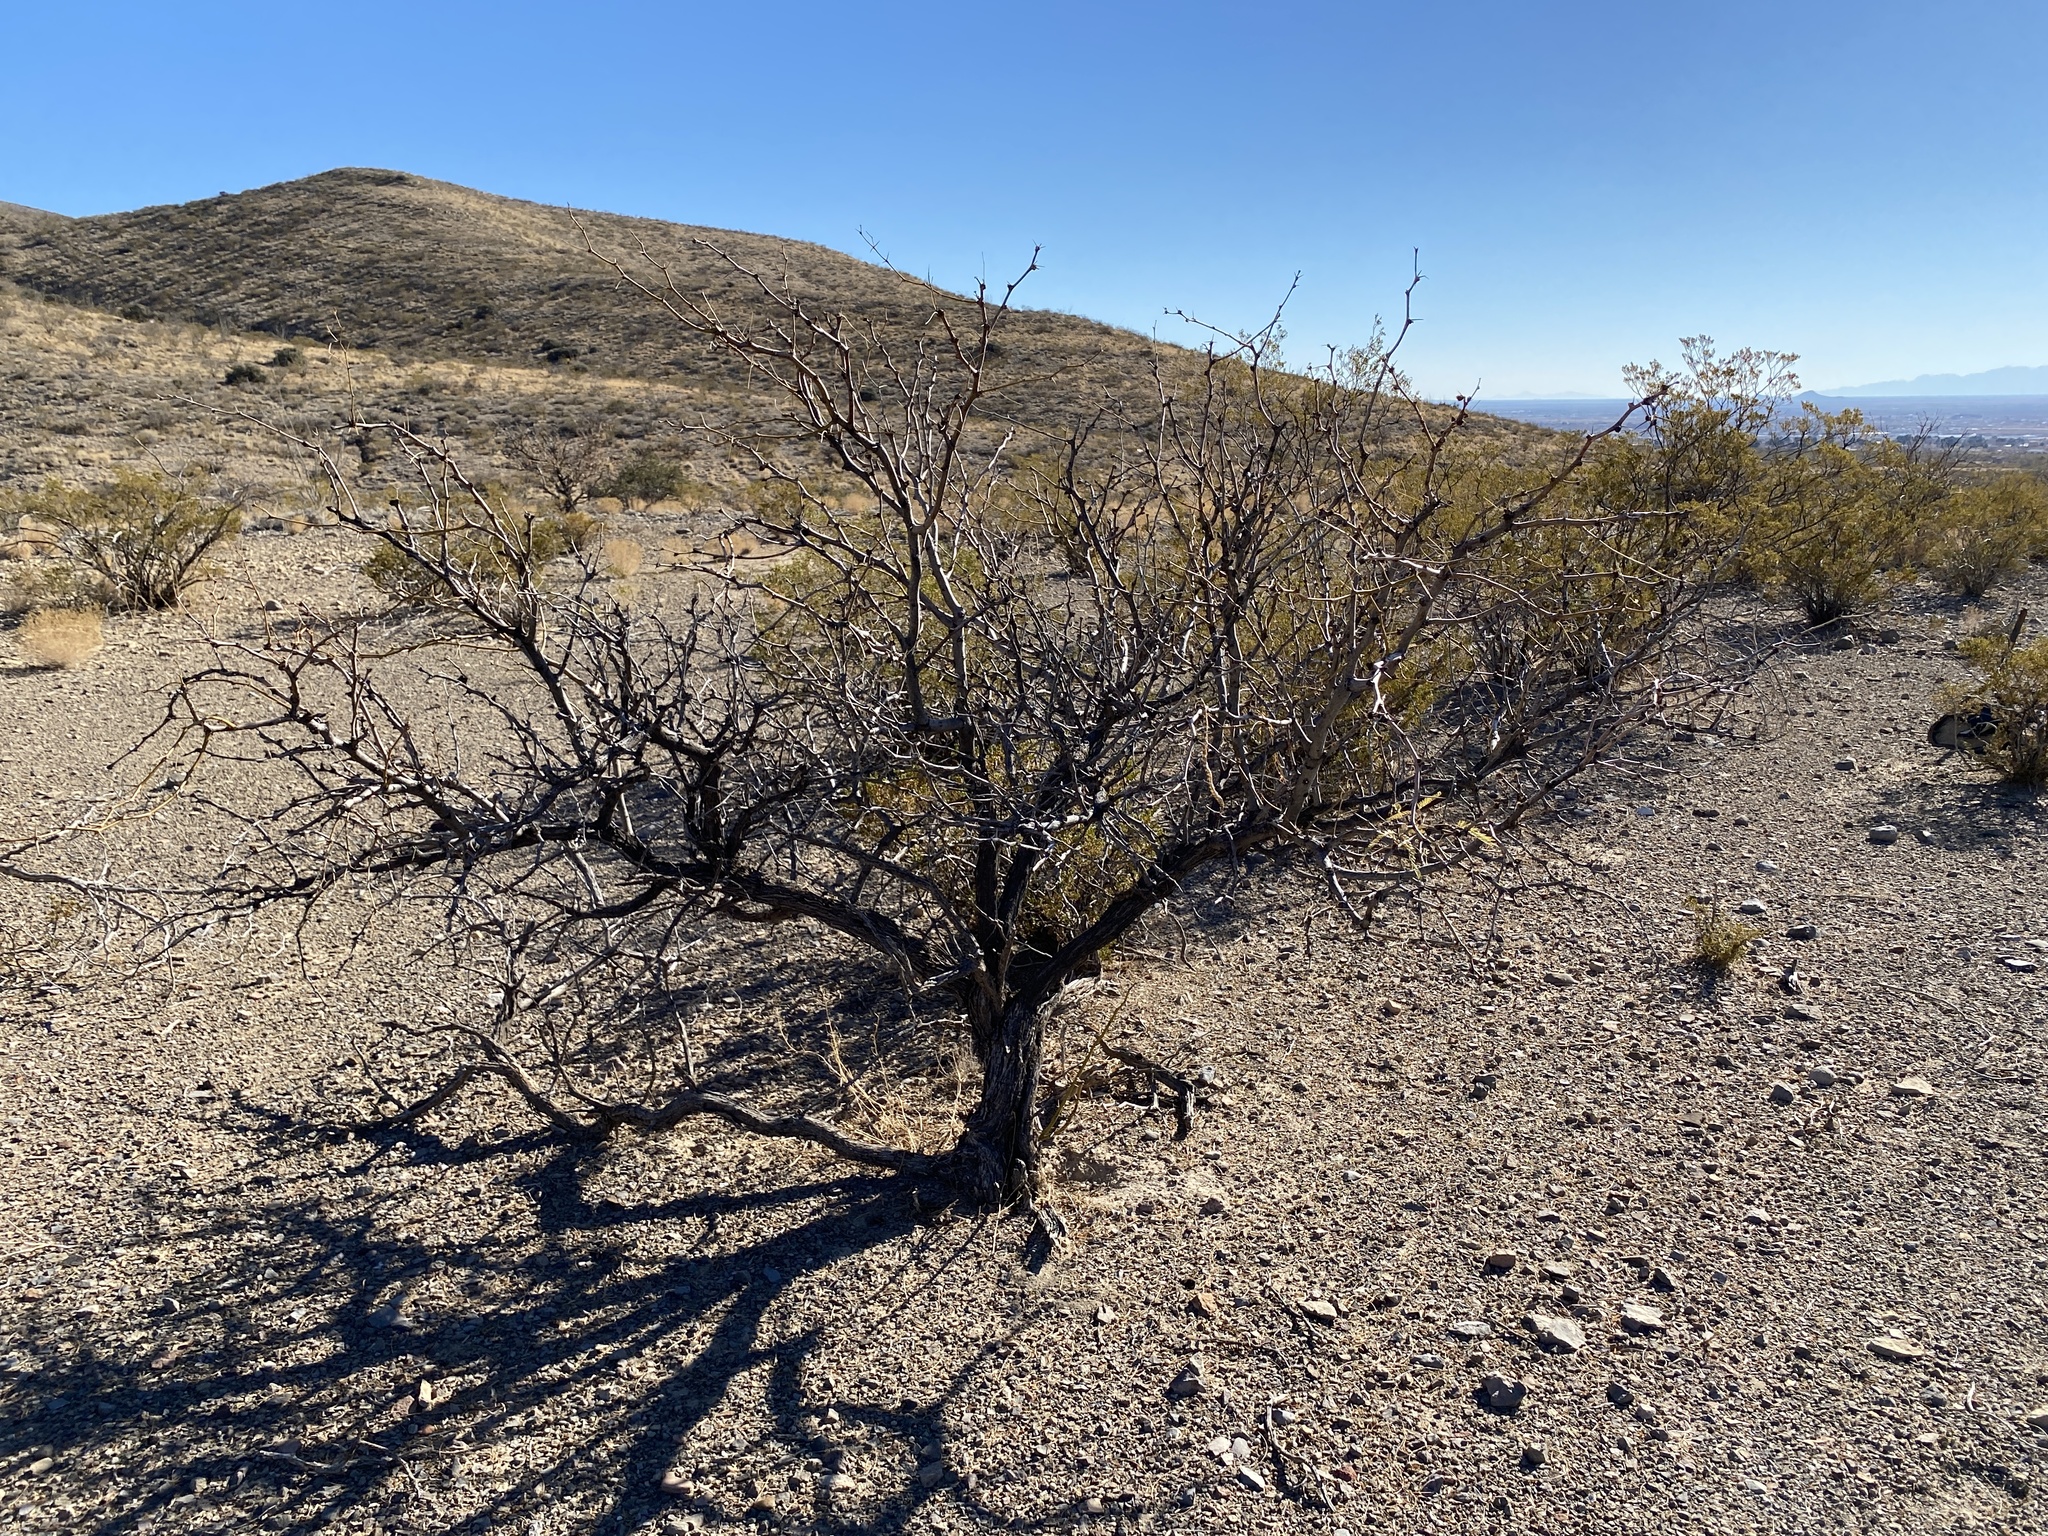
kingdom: Plantae
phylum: Tracheophyta
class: Magnoliopsida
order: Fabales
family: Fabaceae
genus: Prosopis
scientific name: Prosopis glandulosa
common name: Honey mesquite
